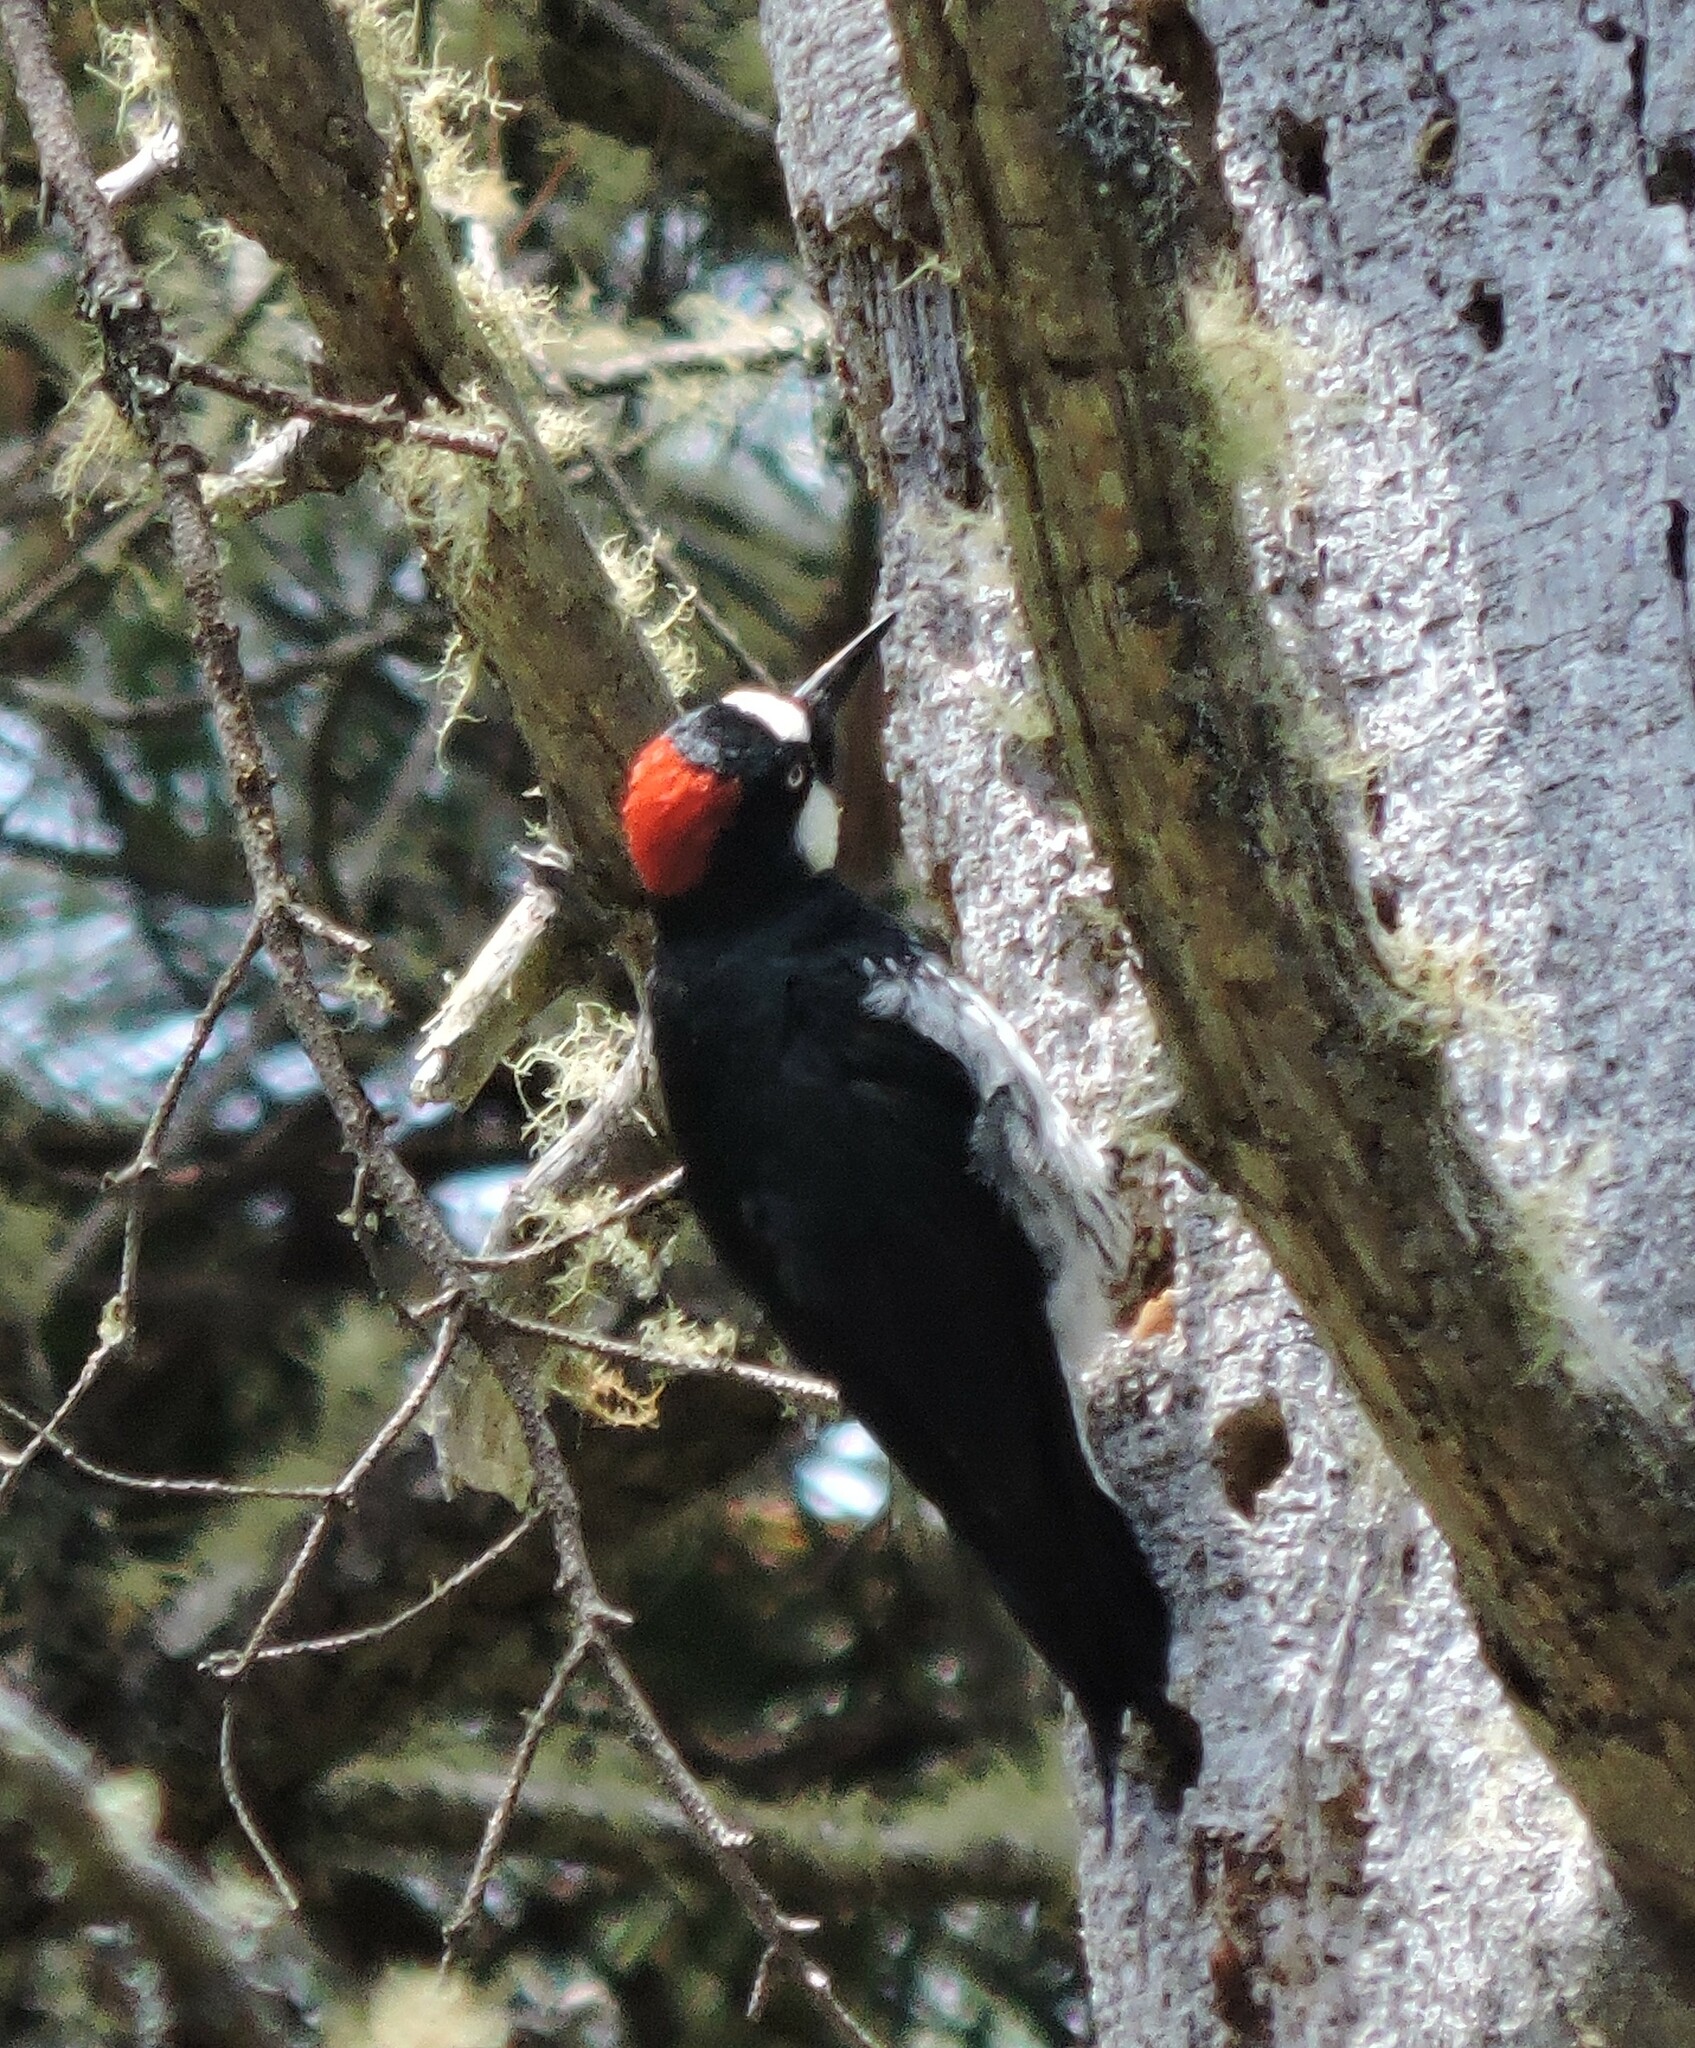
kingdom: Animalia
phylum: Chordata
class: Aves
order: Piciformes
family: Picidae
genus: Melanerpes
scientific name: Melanerpes formicivorus
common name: Acorn woodpecker
